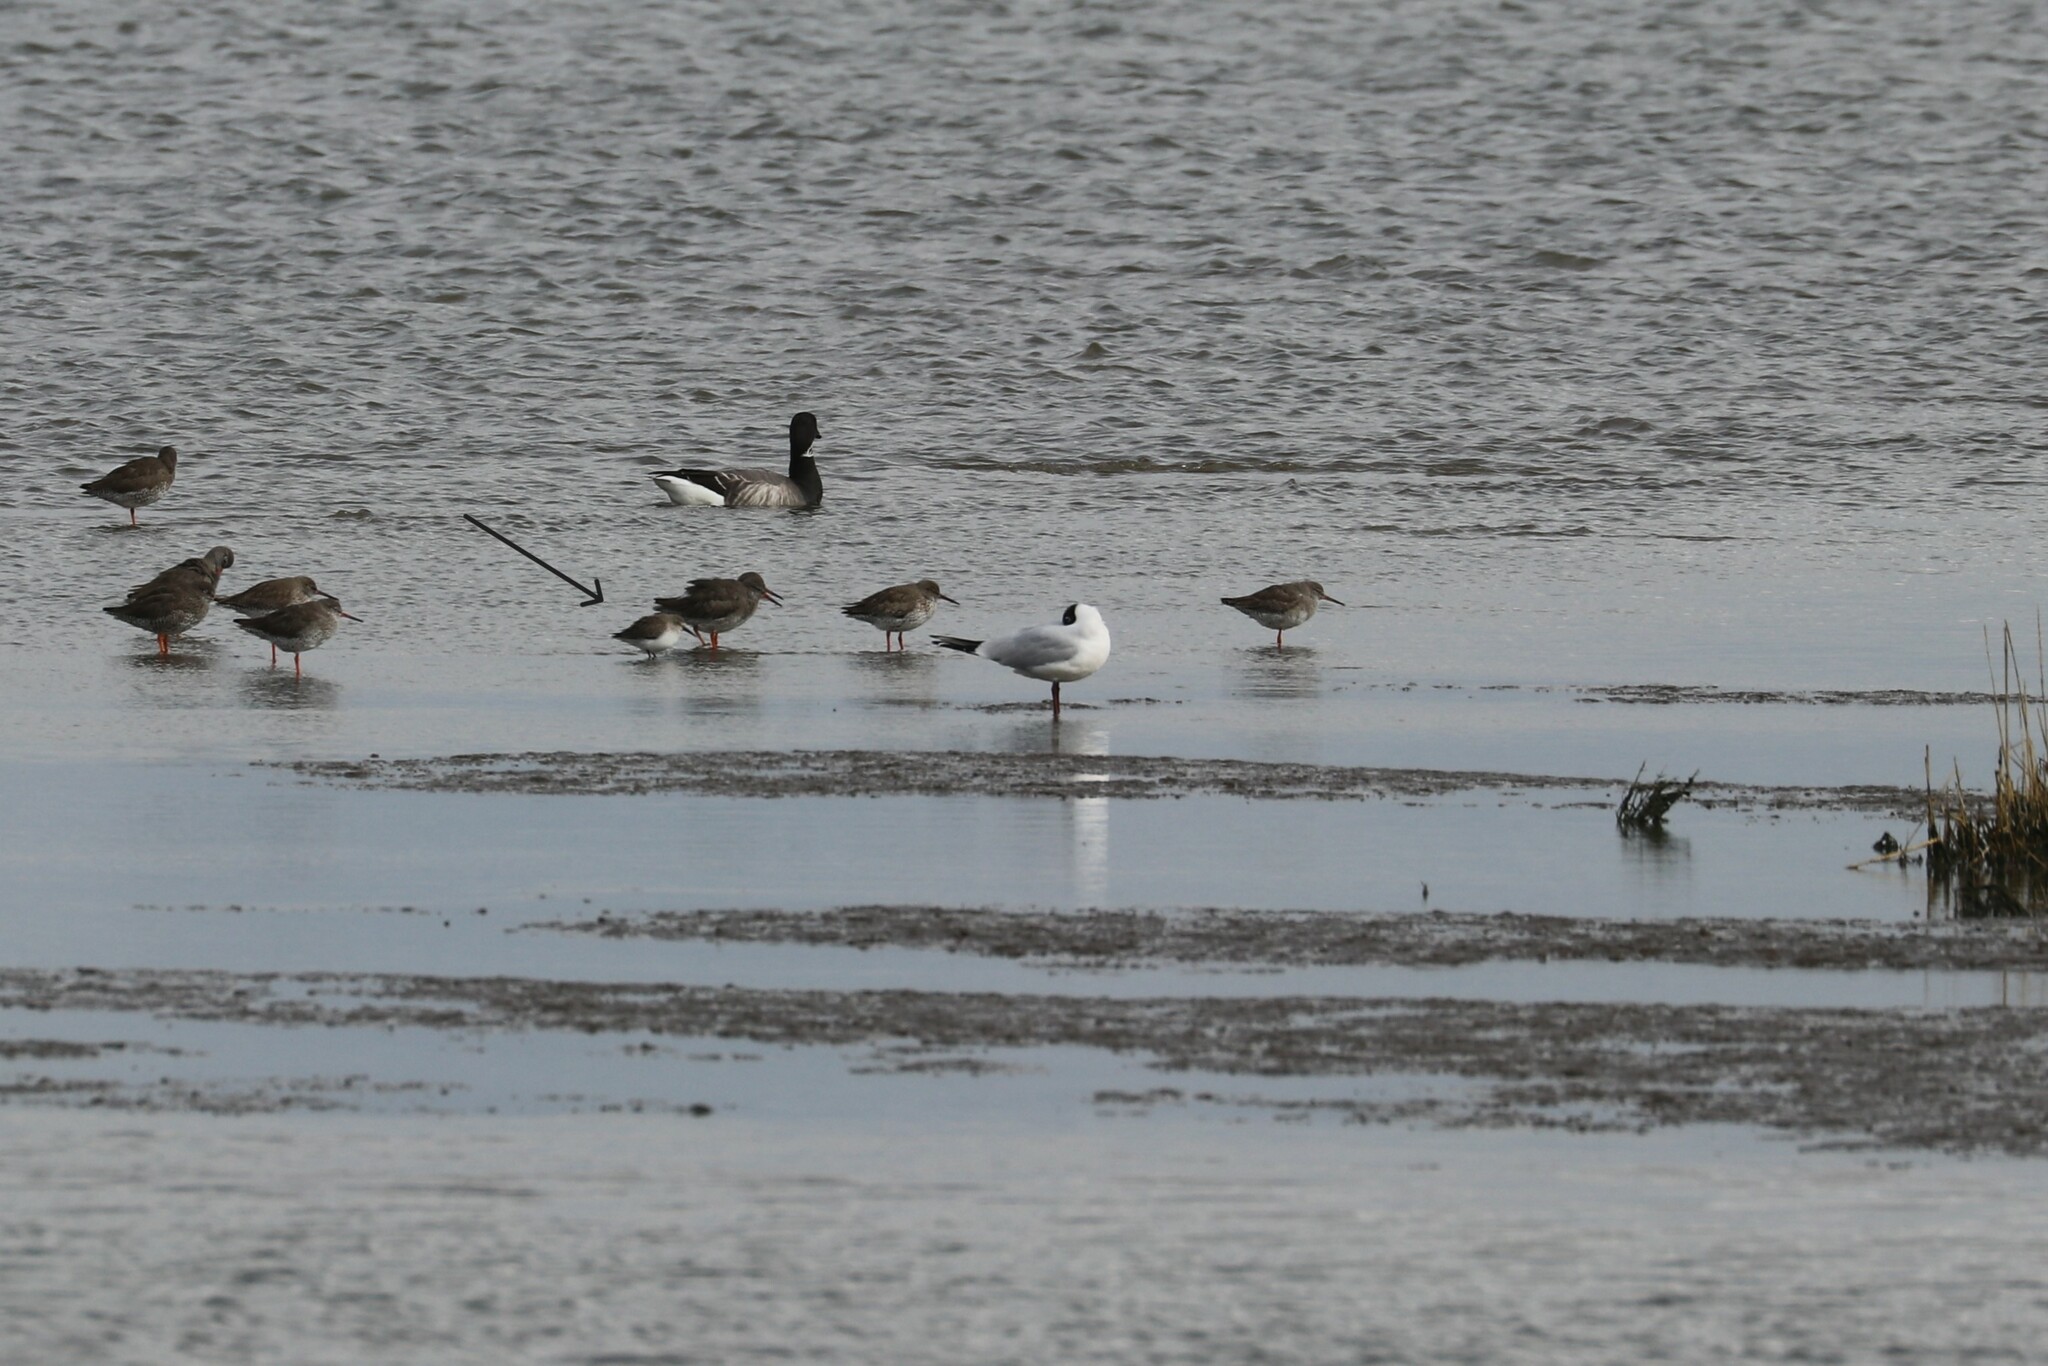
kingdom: Animalia
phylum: Chordata
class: Aves
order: Charadriiformes
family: Scolopacidae
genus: Calidris
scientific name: Calidris alpina
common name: Dunlin
